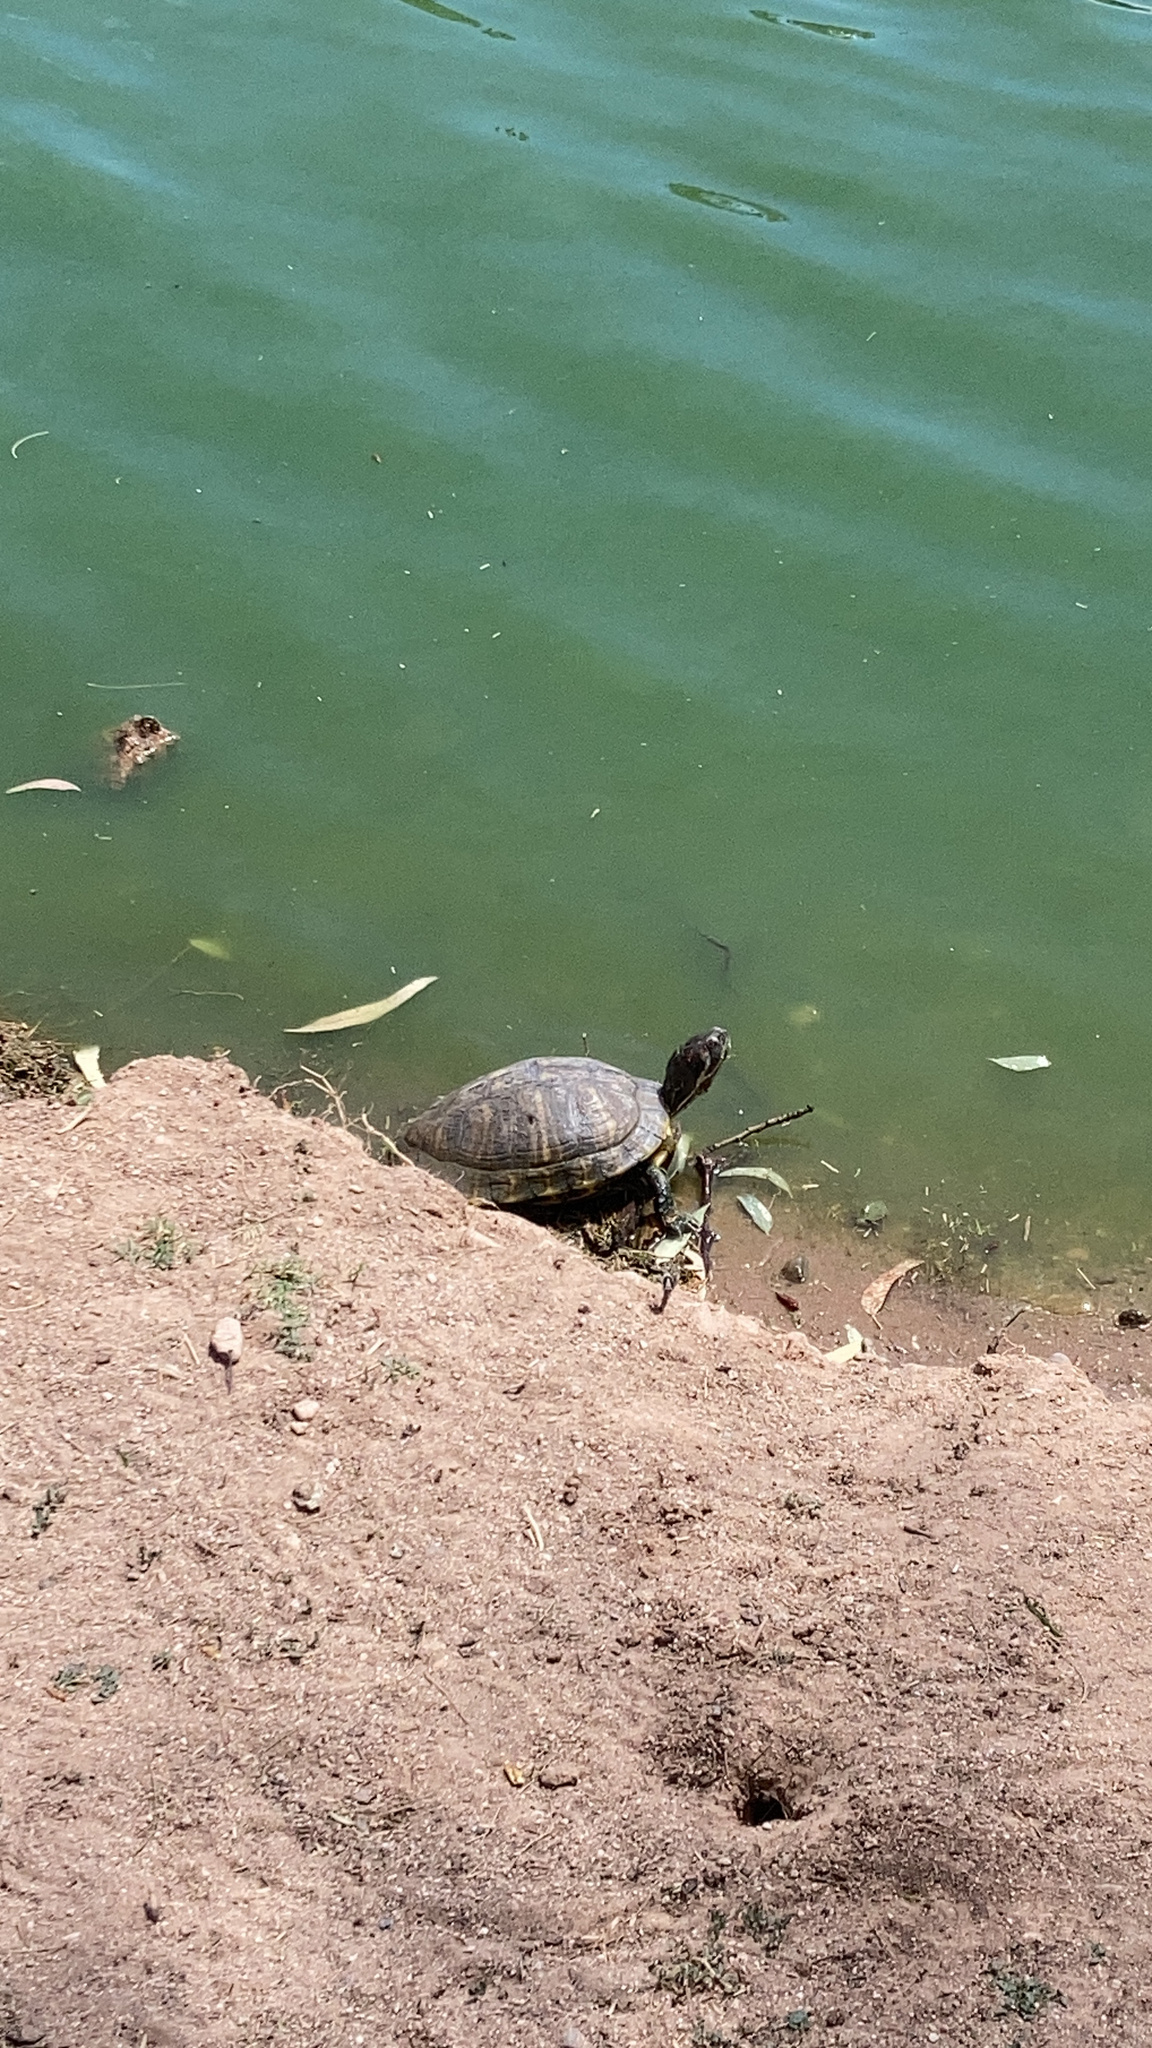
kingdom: Animalia
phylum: Chordata
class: Testudines
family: Emydidae
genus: Trachemys
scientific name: Trachemys scripta
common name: Slider
